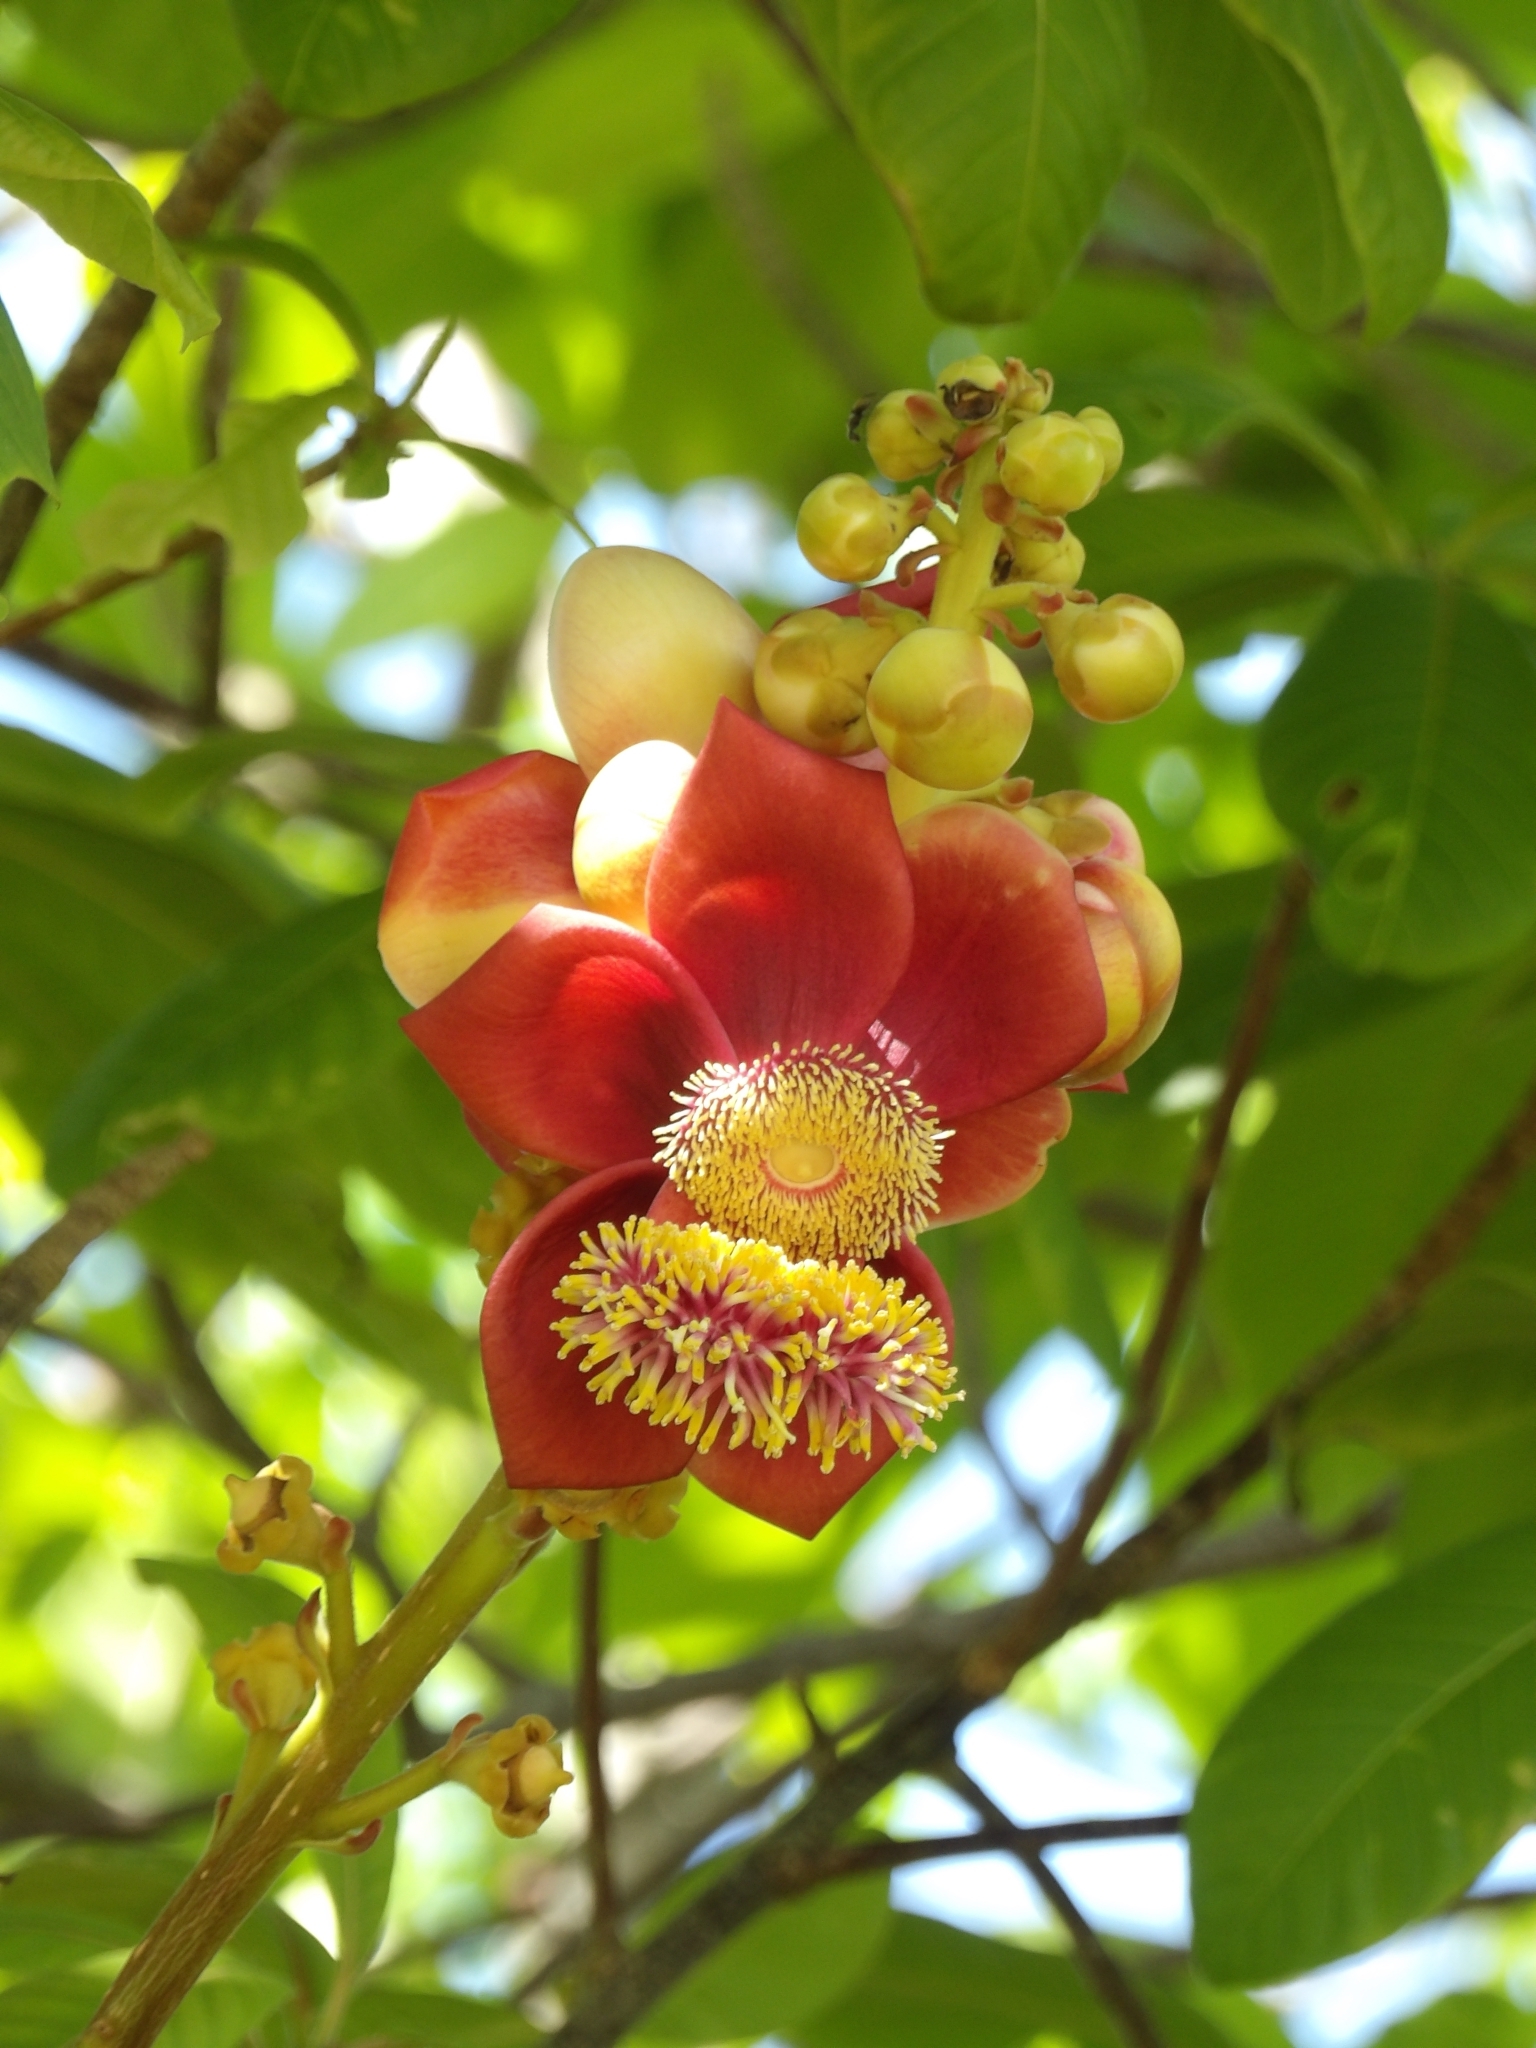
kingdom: Plantae
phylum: Tracheophyta
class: Magnoliopsida
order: Ericales
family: Lecythidaceae
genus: Couroupita
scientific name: Couroupita guianensis
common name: Cannonball tree
